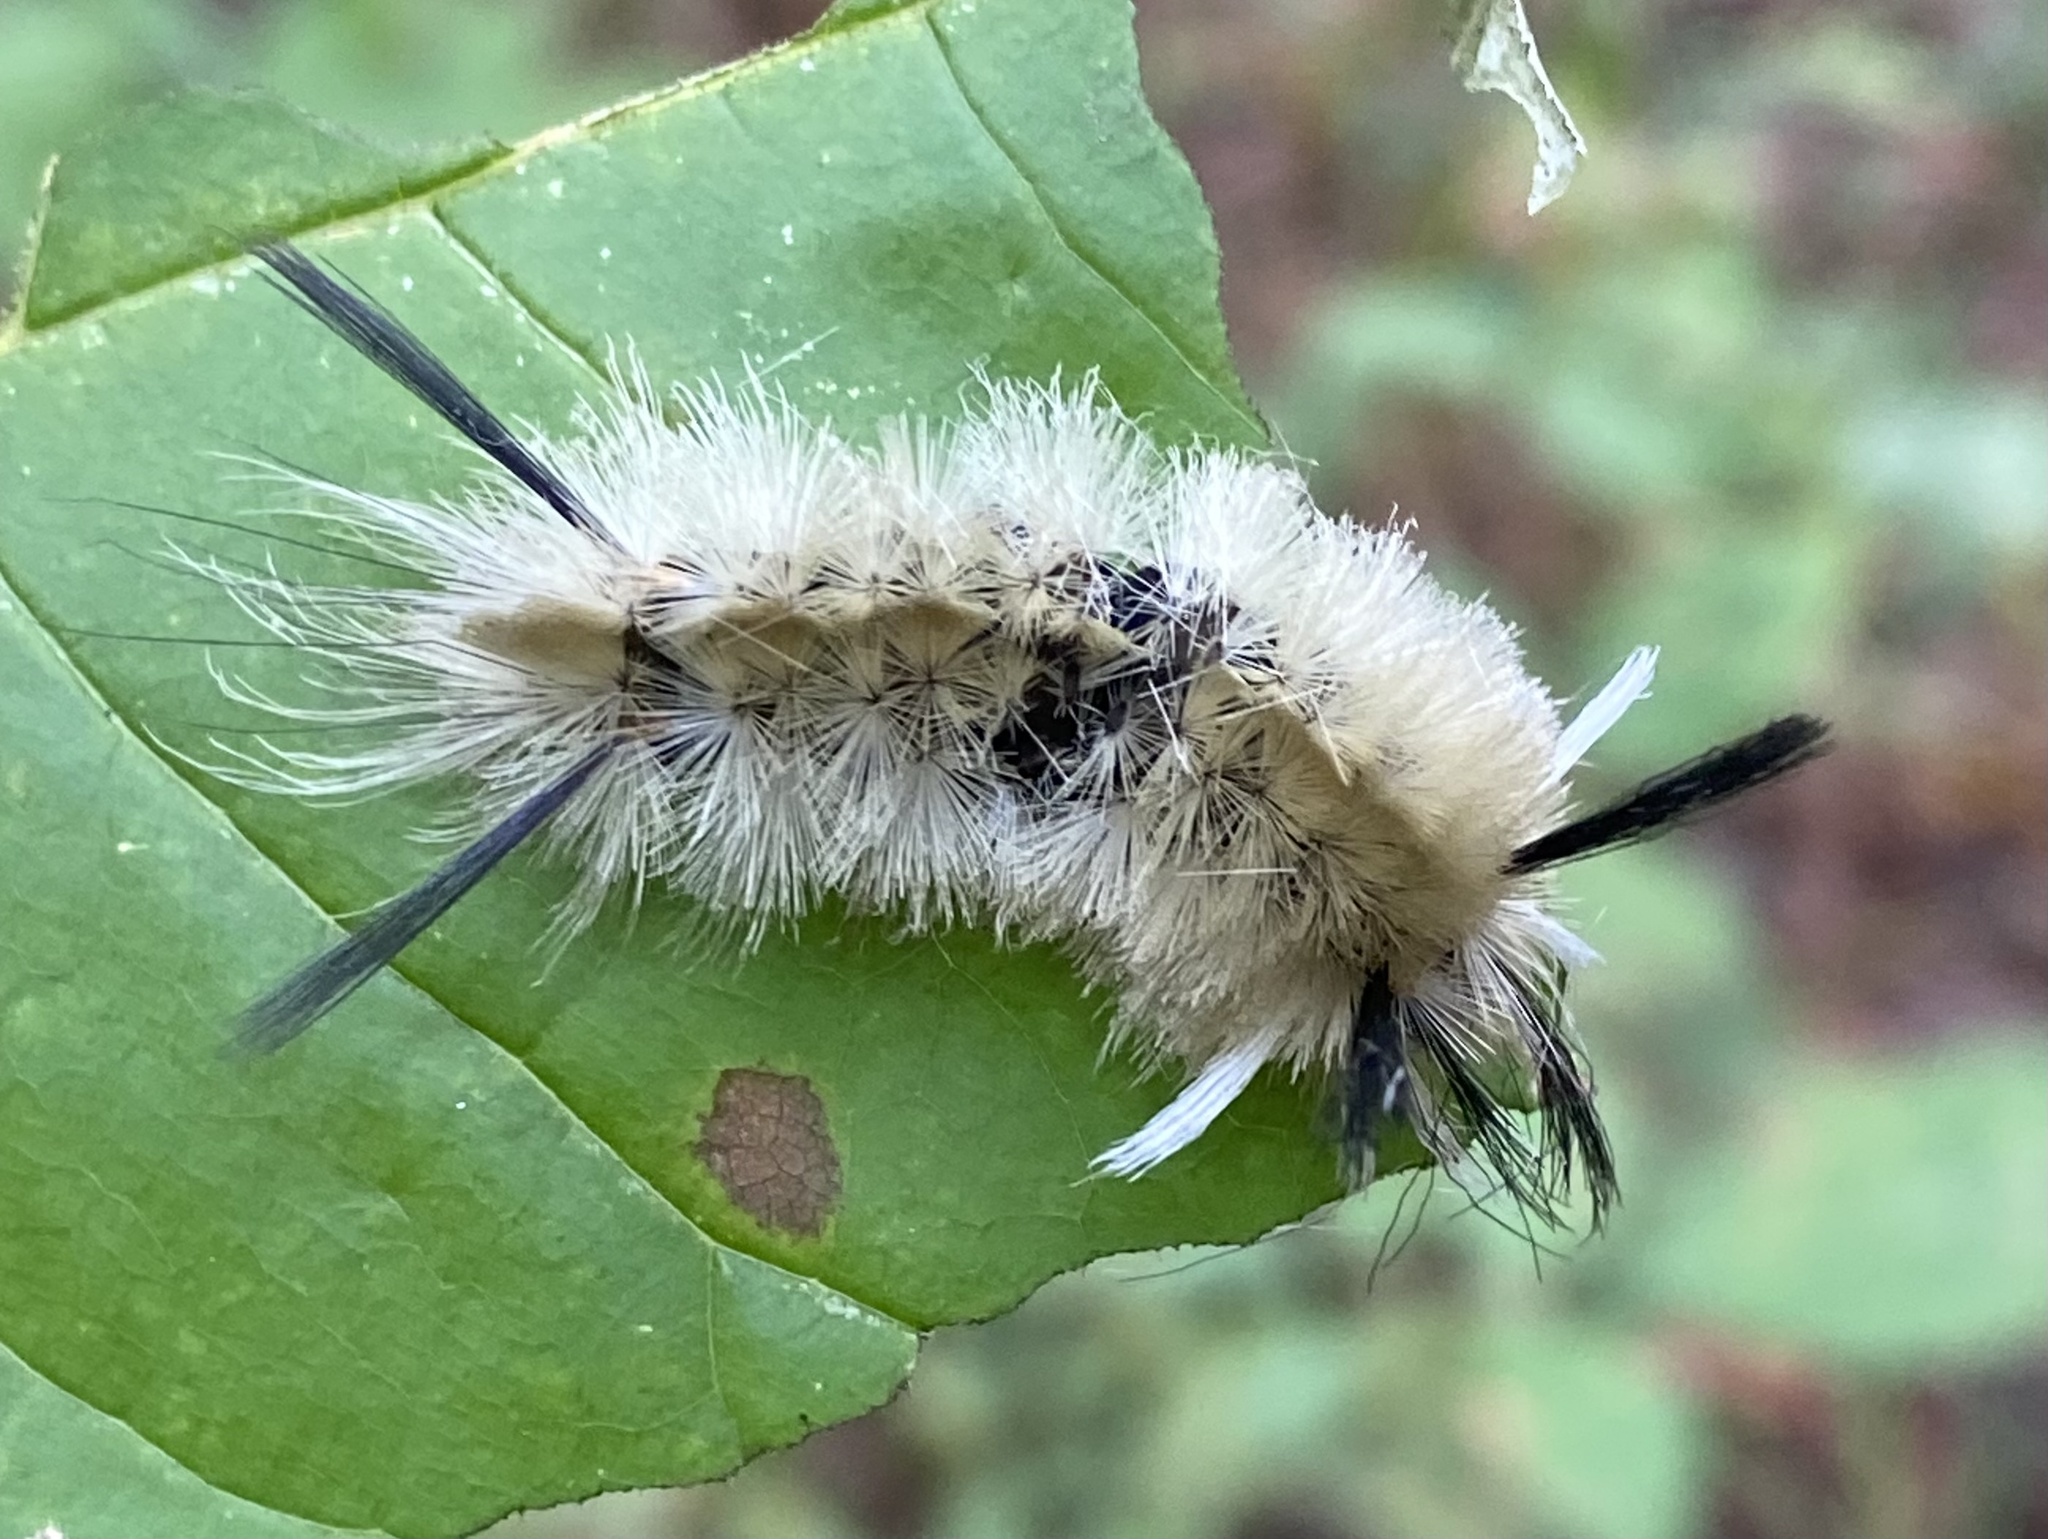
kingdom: Animalia
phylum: Arthropoda
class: Insecta
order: Lepidoptera
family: Erebidae
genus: Halysidota
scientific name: Halysidota tessellaris
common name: Banded tussock moth
